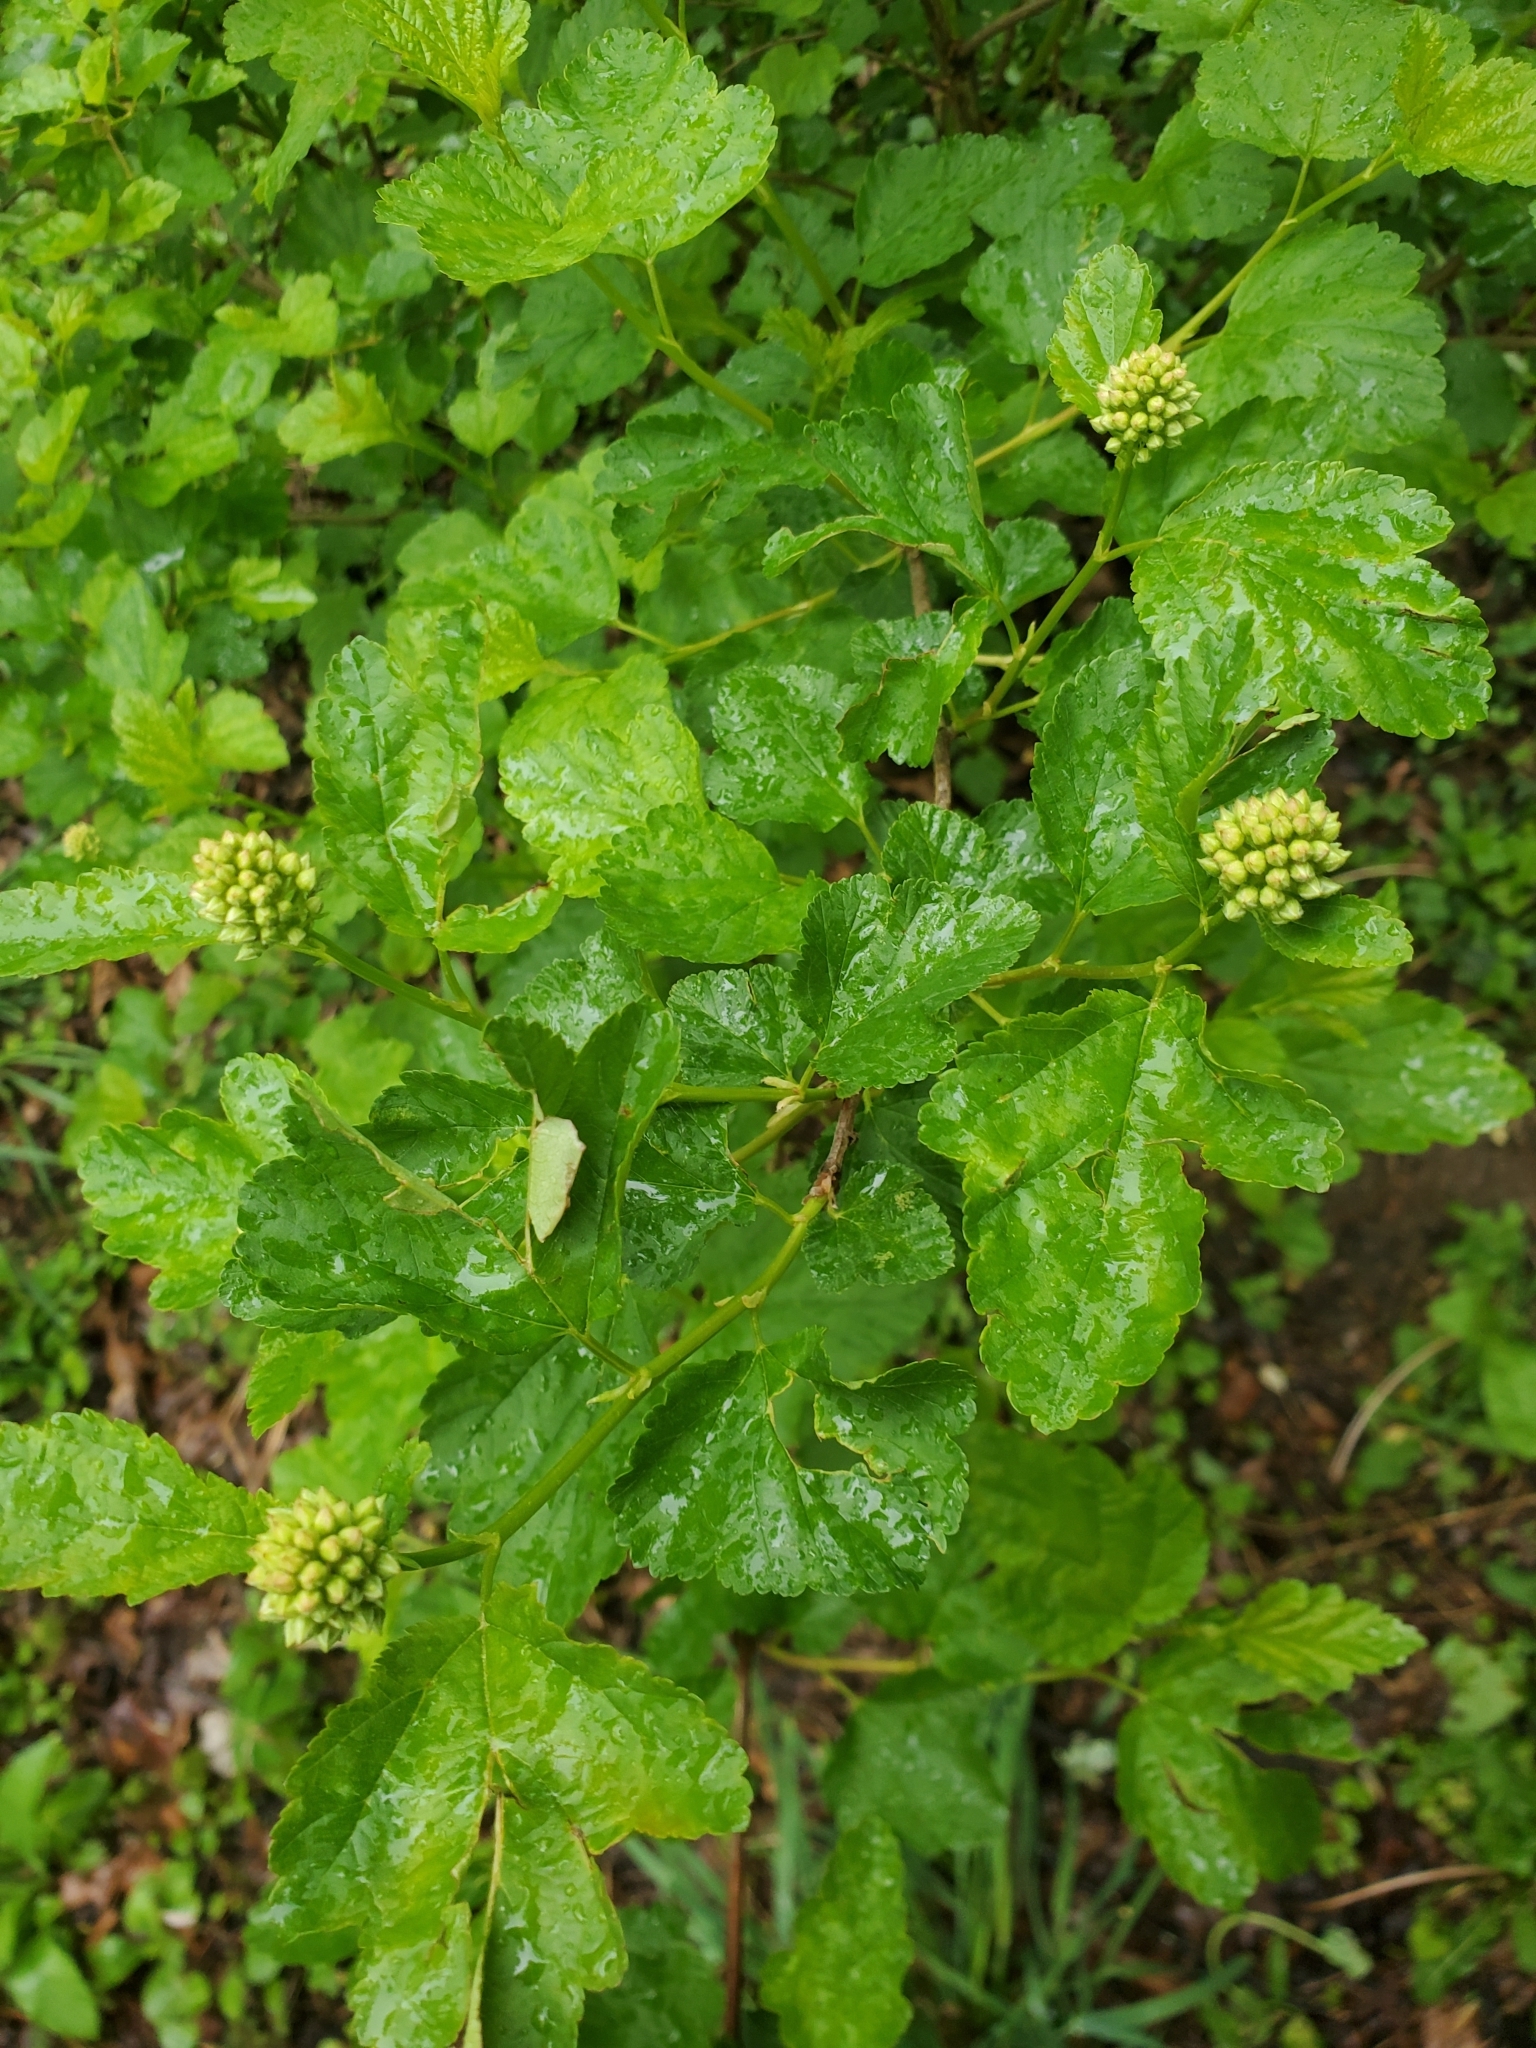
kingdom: Plantae
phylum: Tracheophyta
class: Magnoliopsida
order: Rosales
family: Rosaceae
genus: Physocarpus
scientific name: Physocarpus opulifolius
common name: Ninebark
